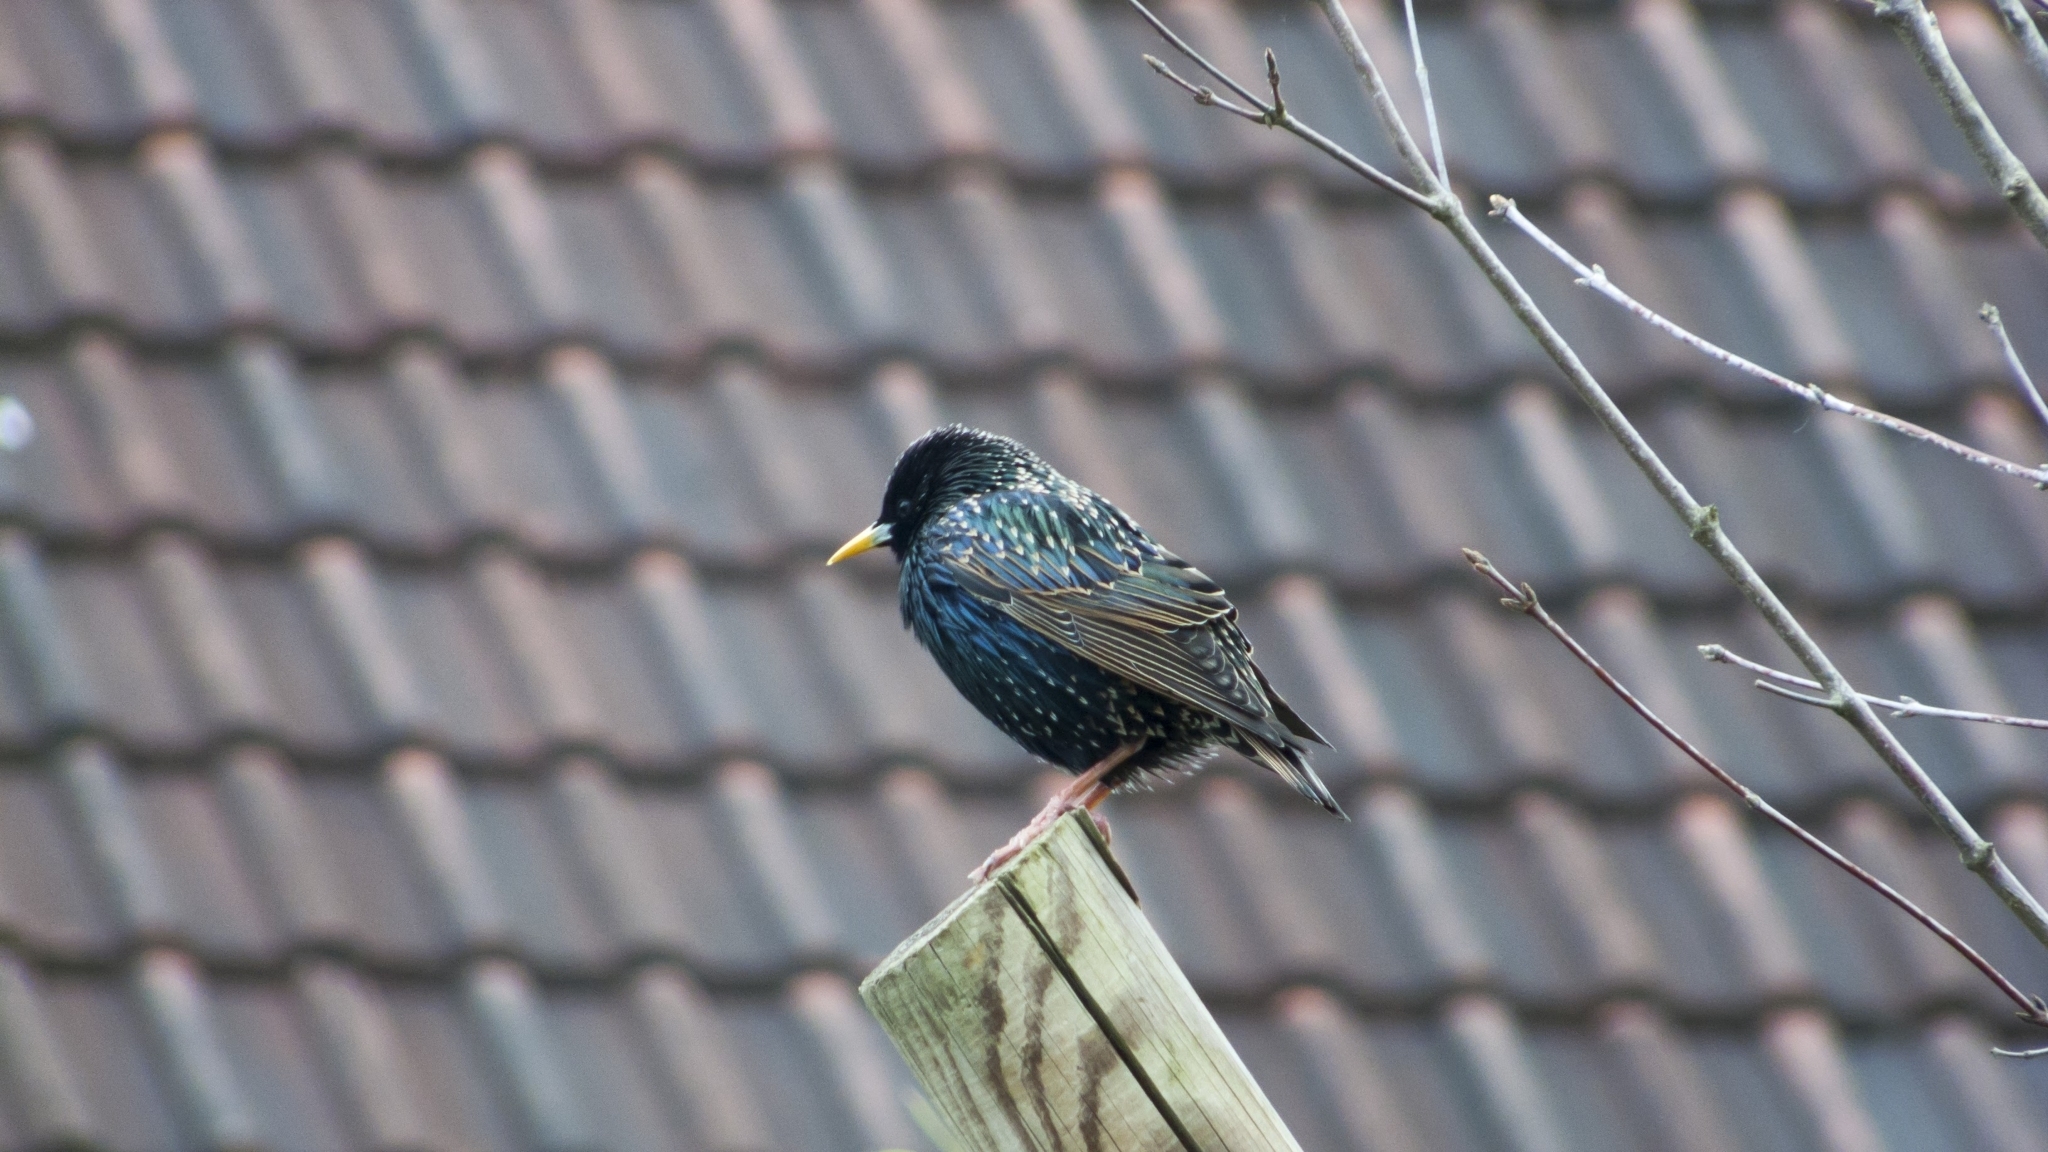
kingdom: Animalia
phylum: Chordata
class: Aves
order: Passeriformes
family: Sturnidae
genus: Sturnus
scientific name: Sturnus vulgaris
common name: Common starling
